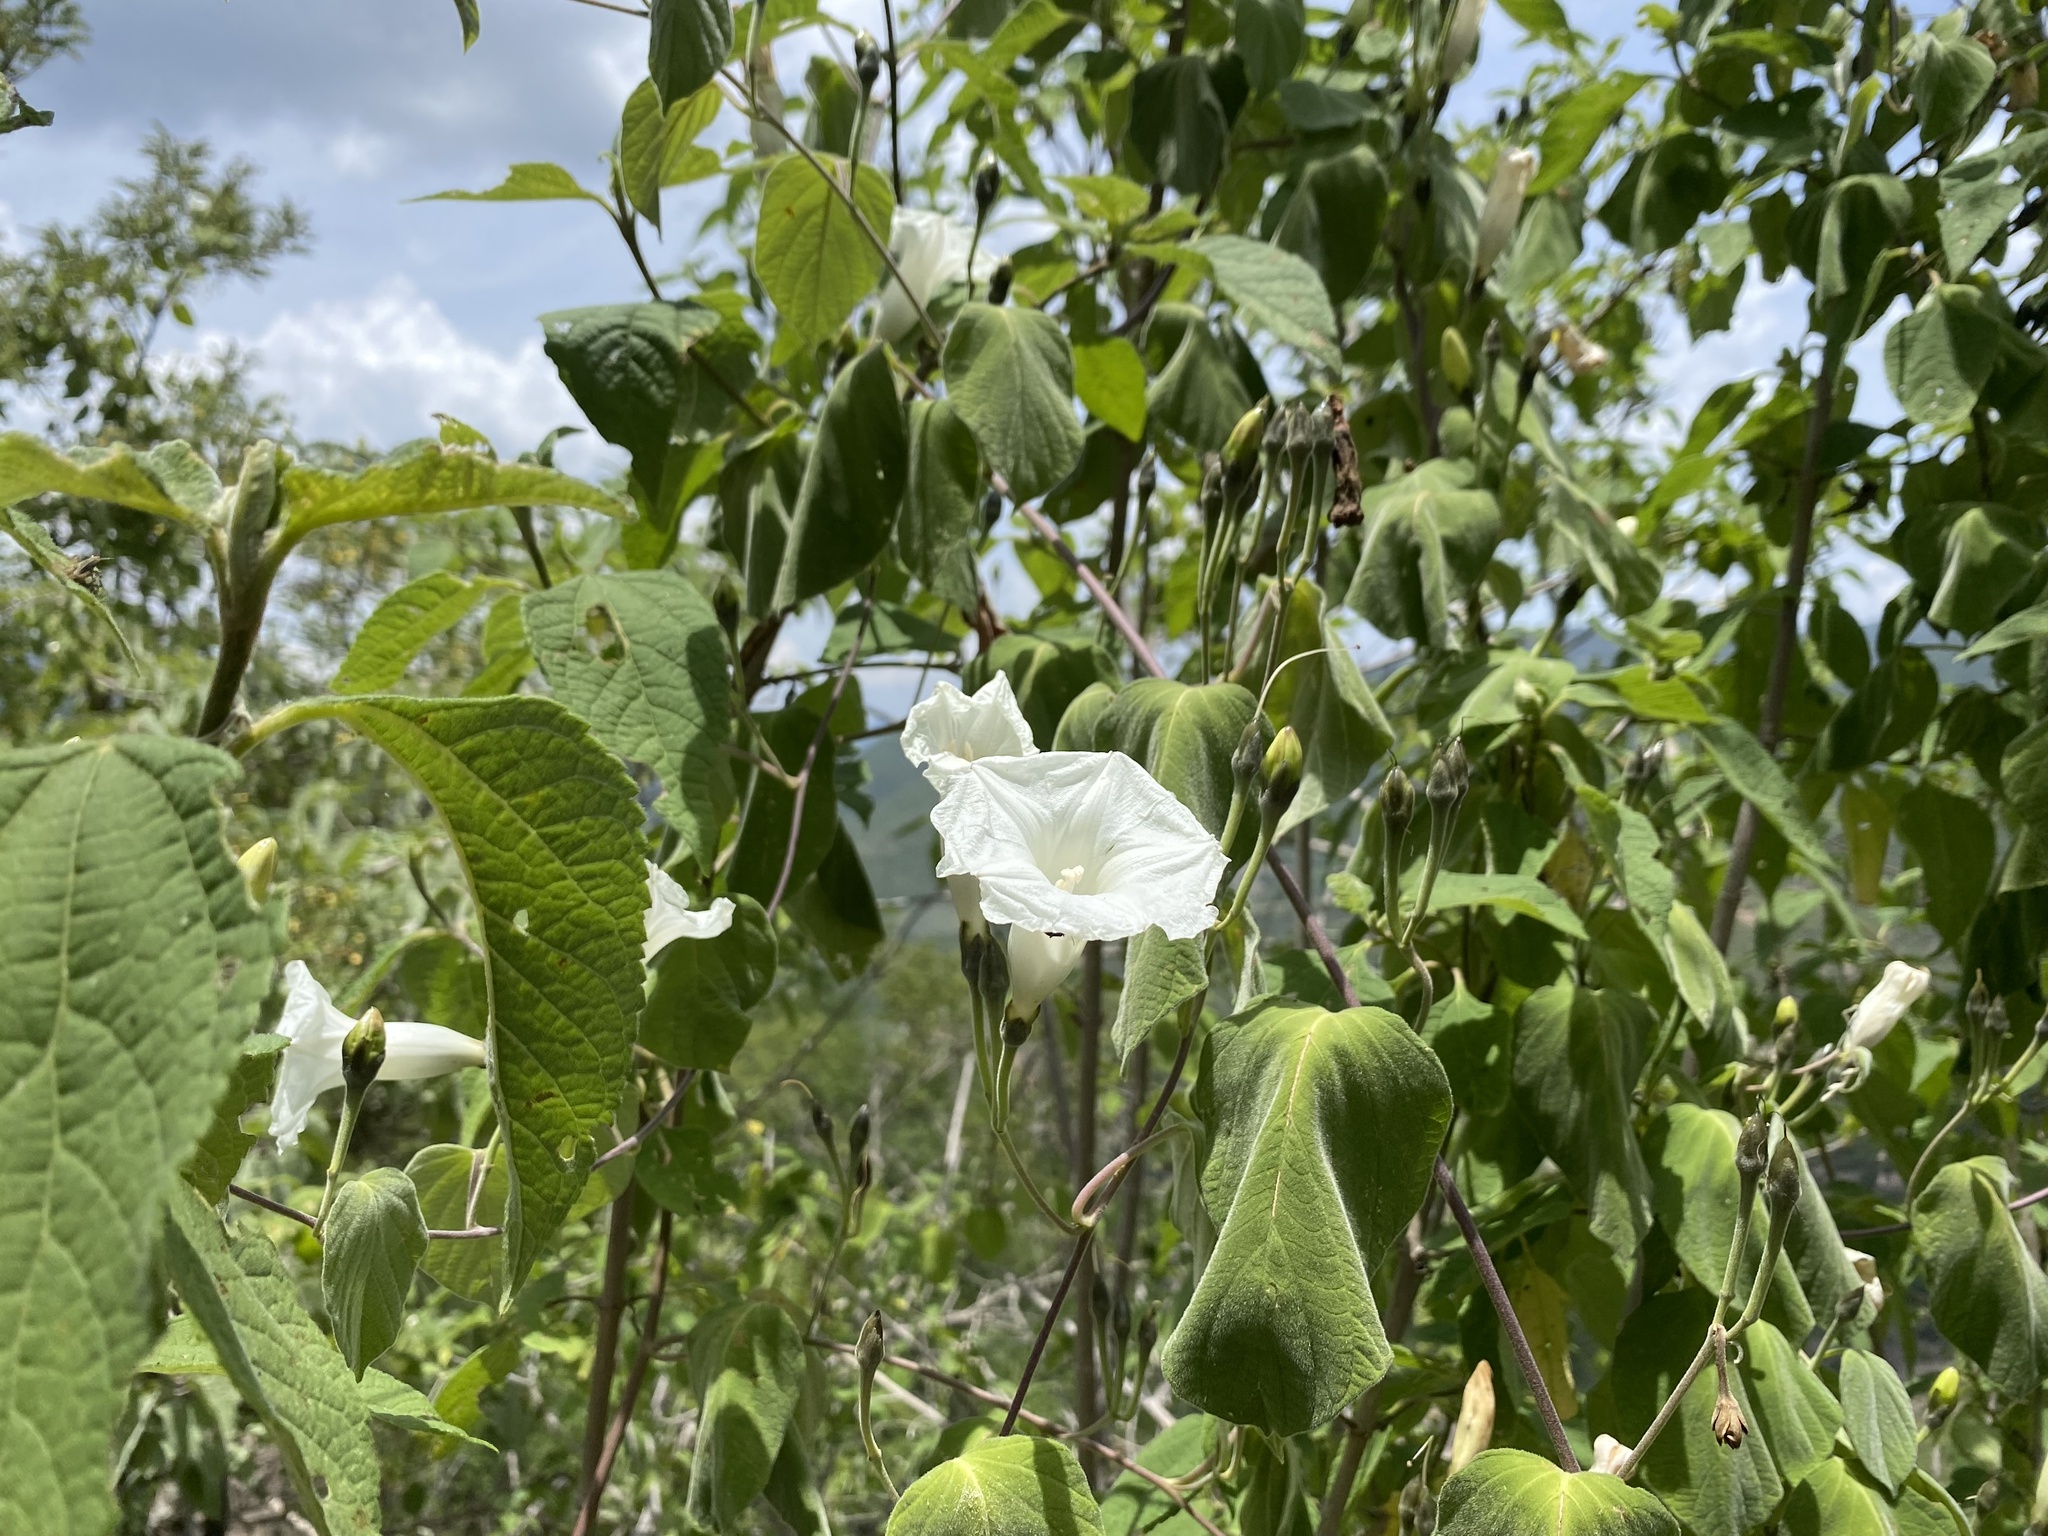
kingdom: Plantae
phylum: Tracheophyta
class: Magnoliopsida
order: Solanales
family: Convolvulaceae
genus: Ipomoea
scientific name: Ipomoea proxima
